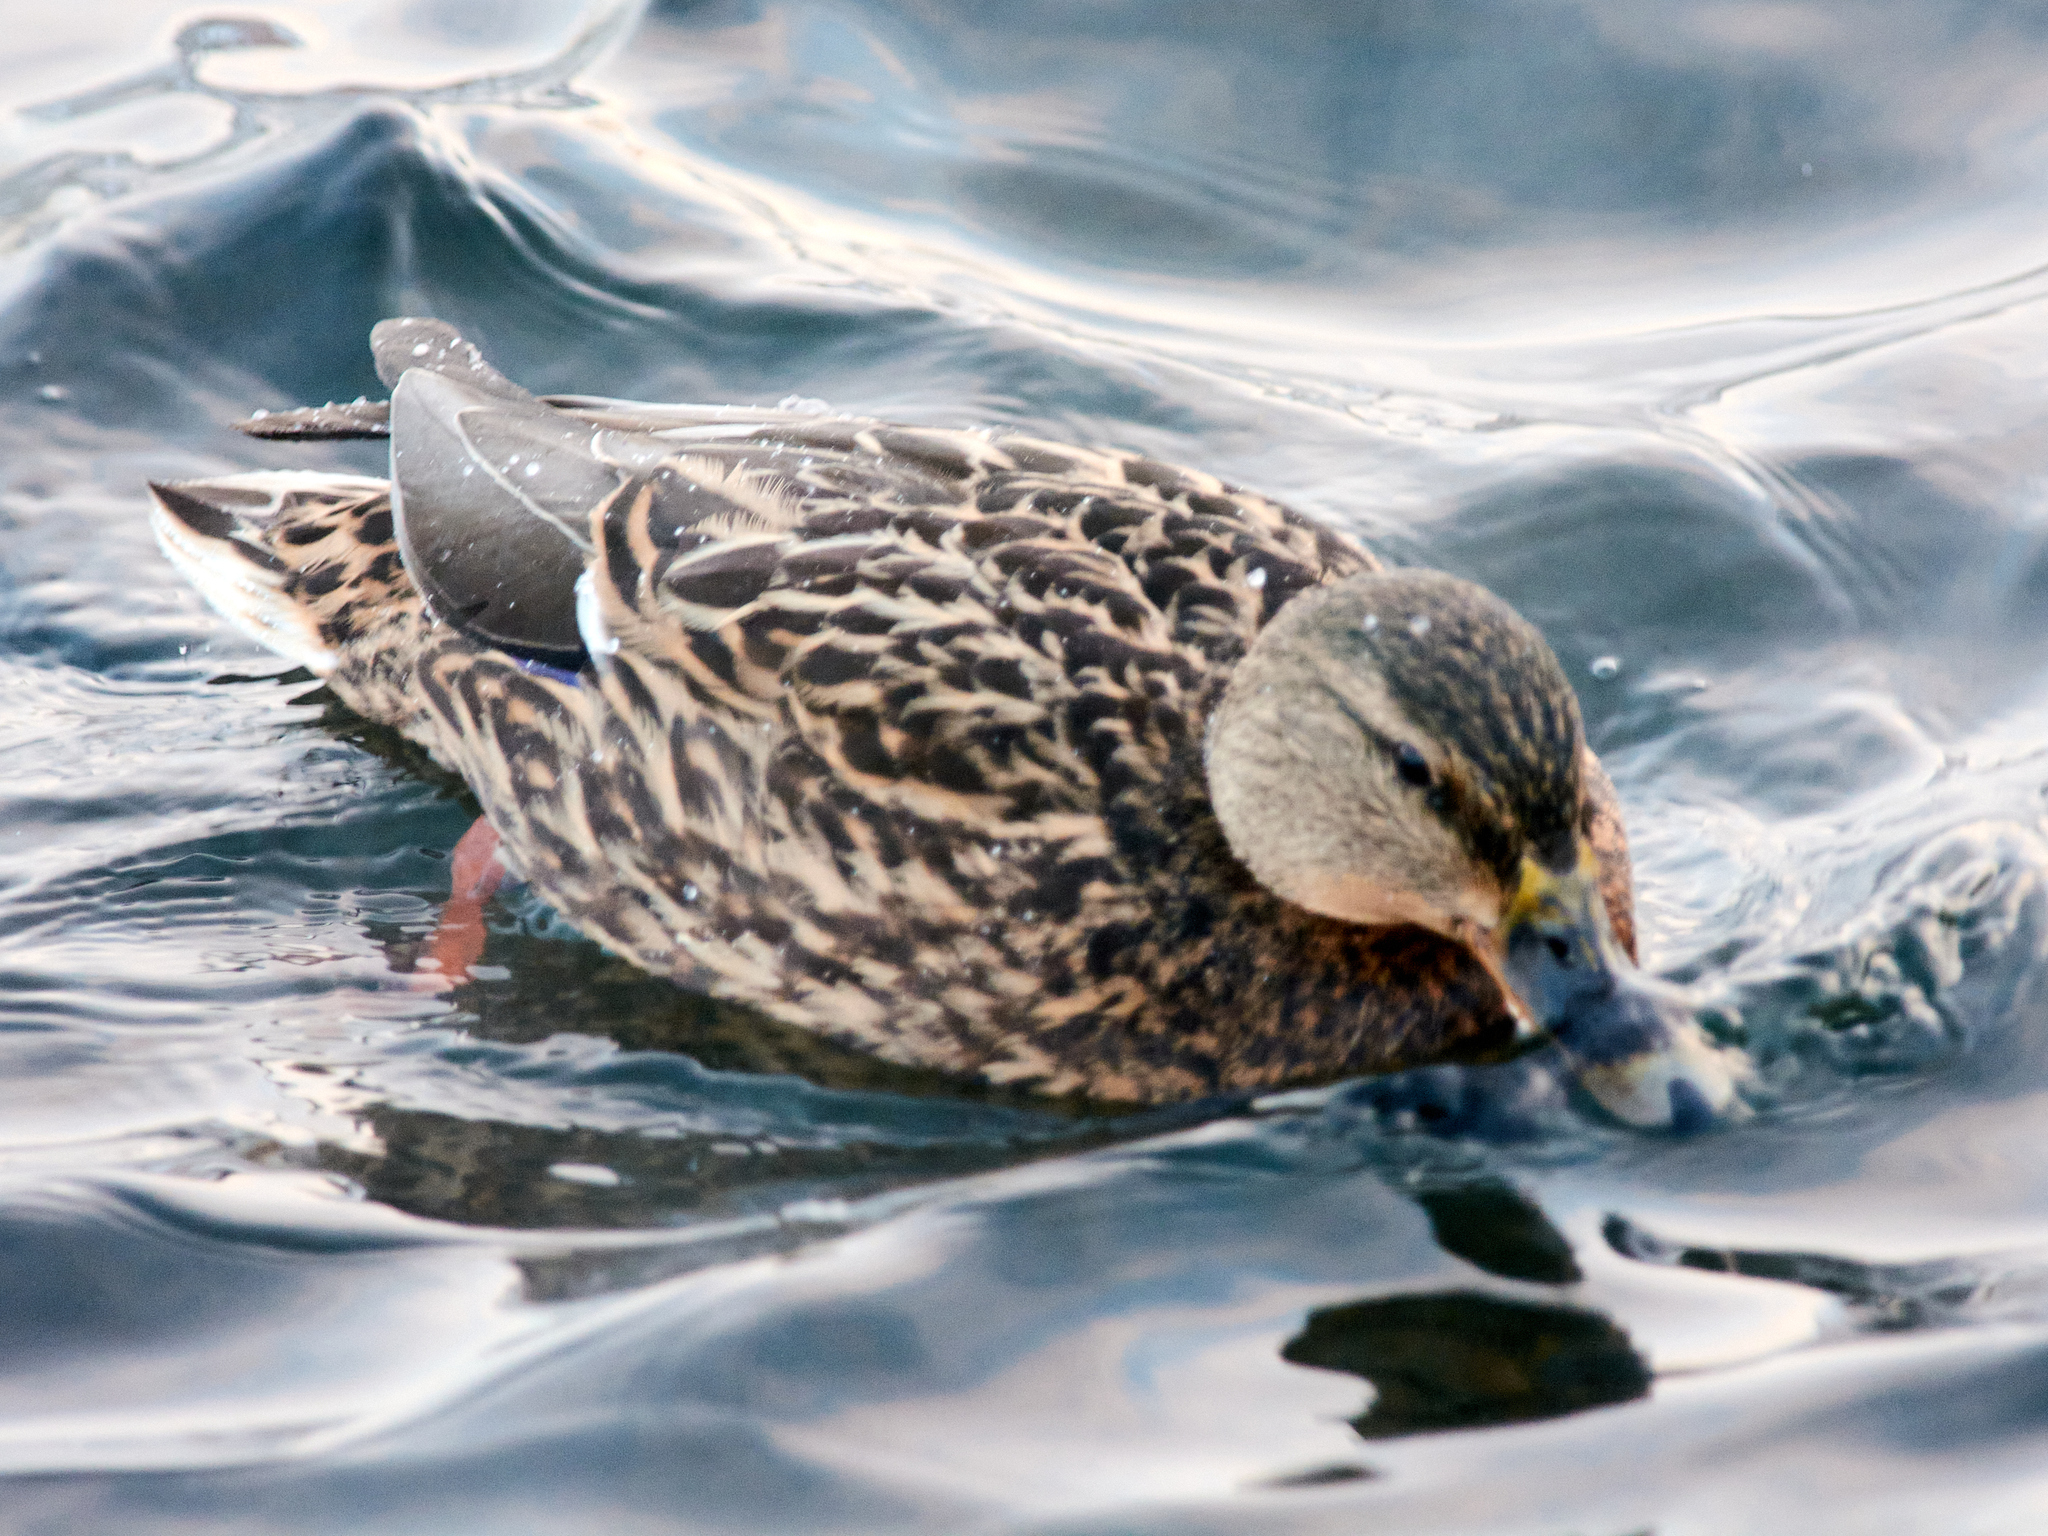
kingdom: Animalia
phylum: Chordata
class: Aves
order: Anseriformes
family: Anatidae
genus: Anas
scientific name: Anas platyrhynchos
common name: Mallard
